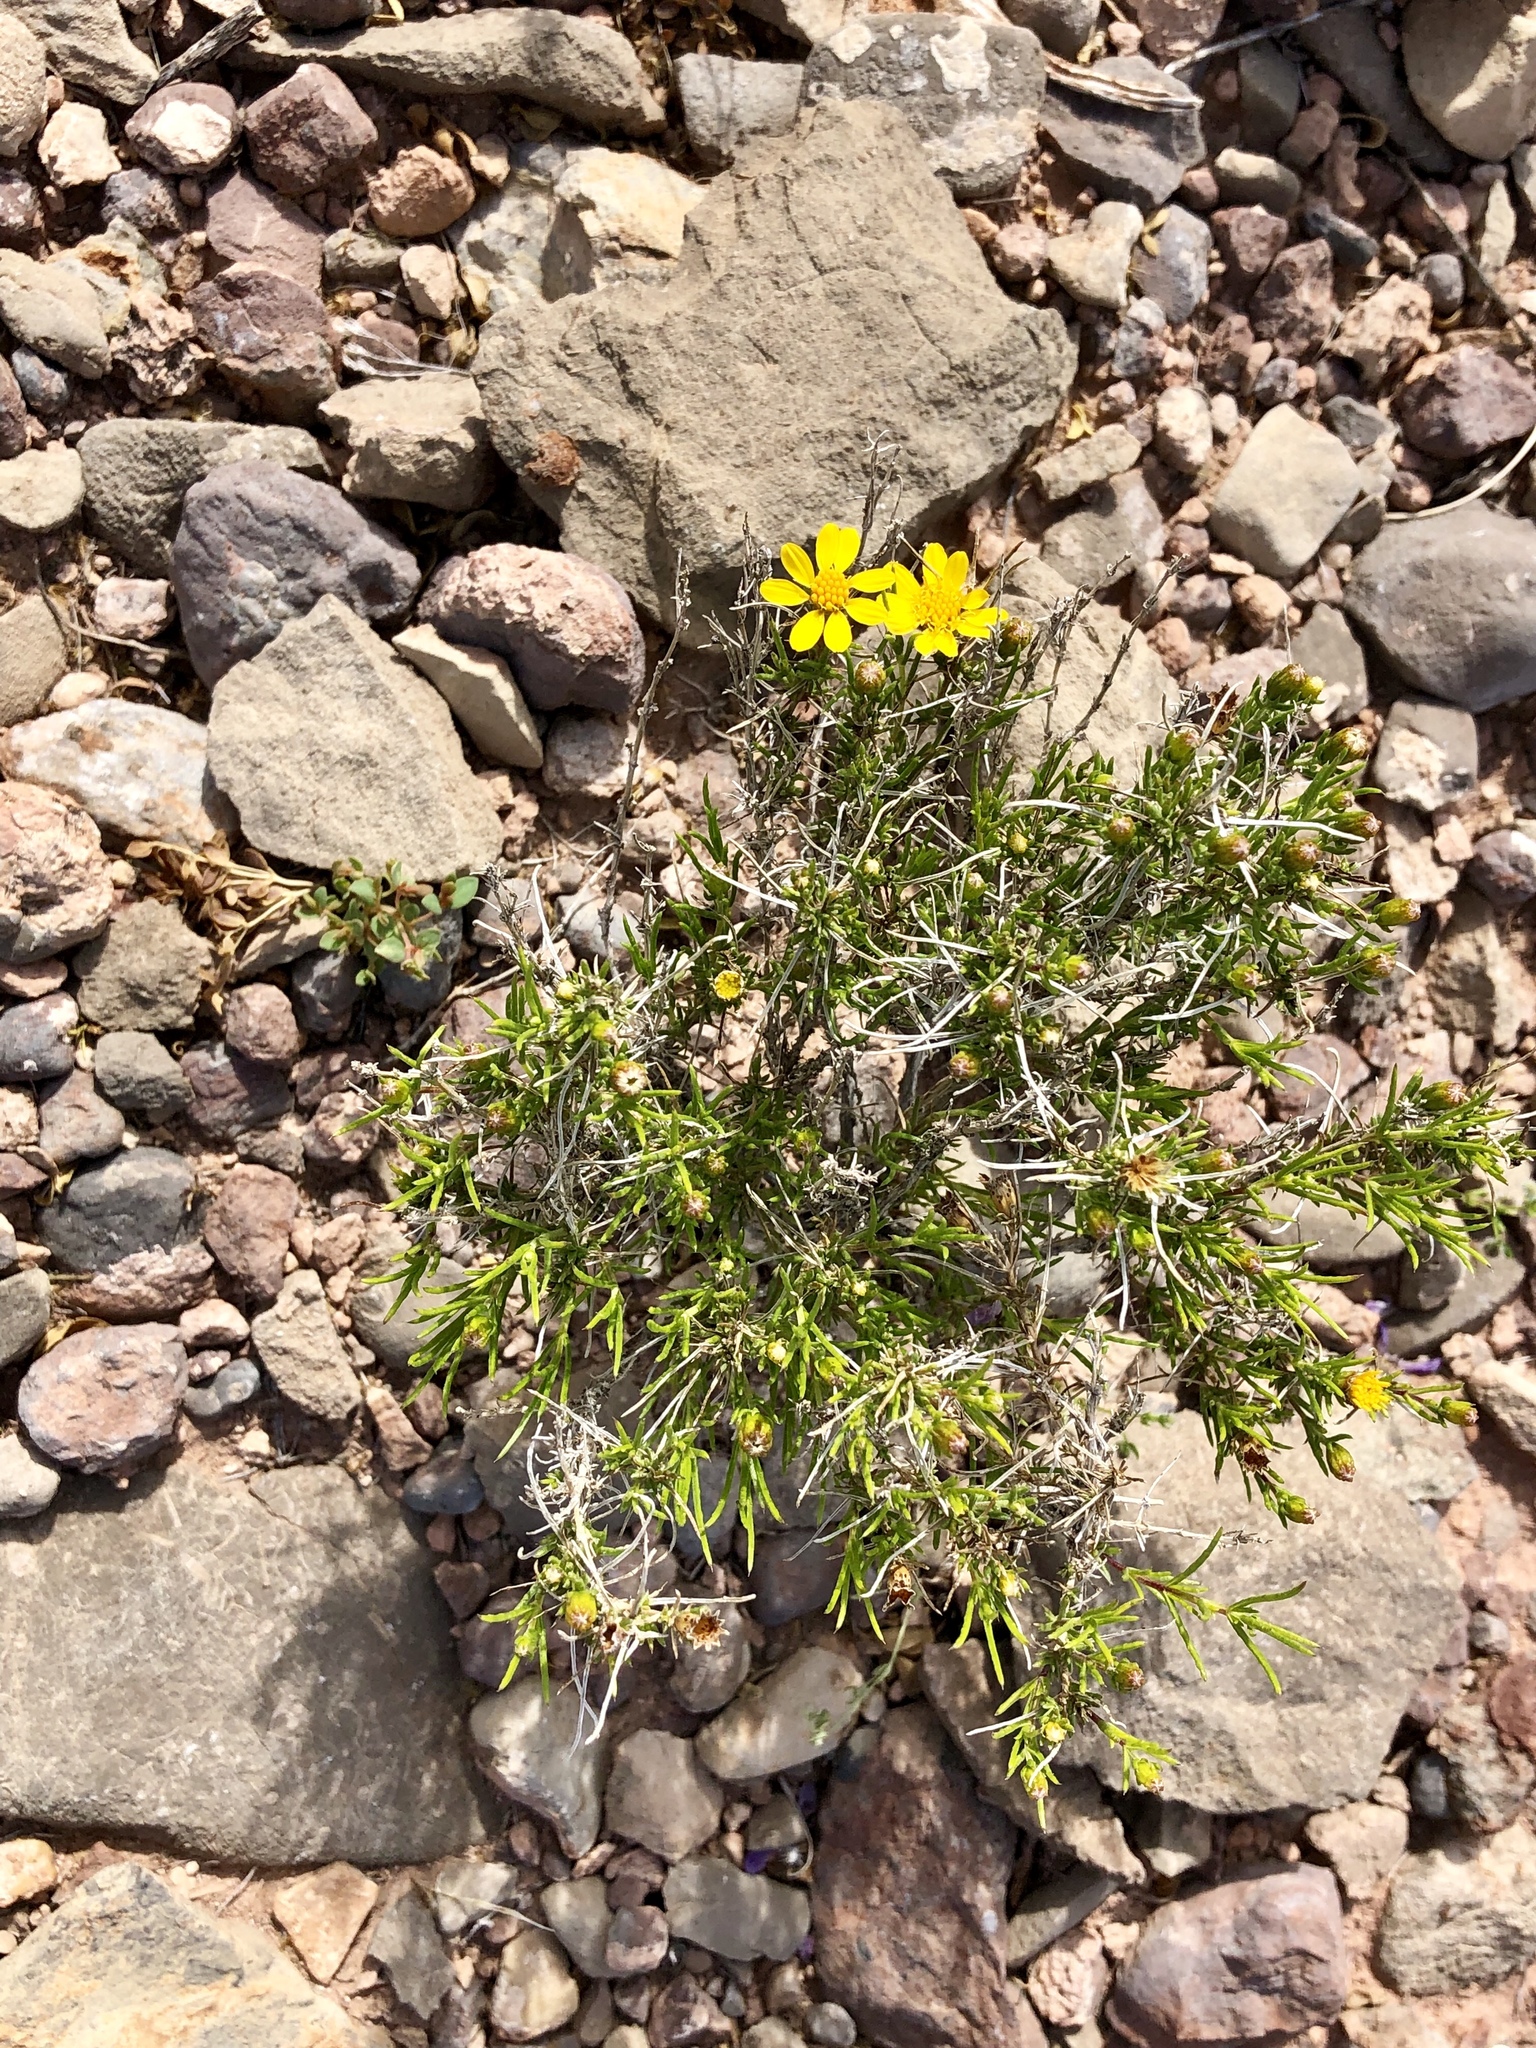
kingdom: Plantae
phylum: Tracheophyta
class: Magnoliopsida
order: Asterales
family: Asteraceae
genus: Thymophylla
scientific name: Thymophylla acerosa
